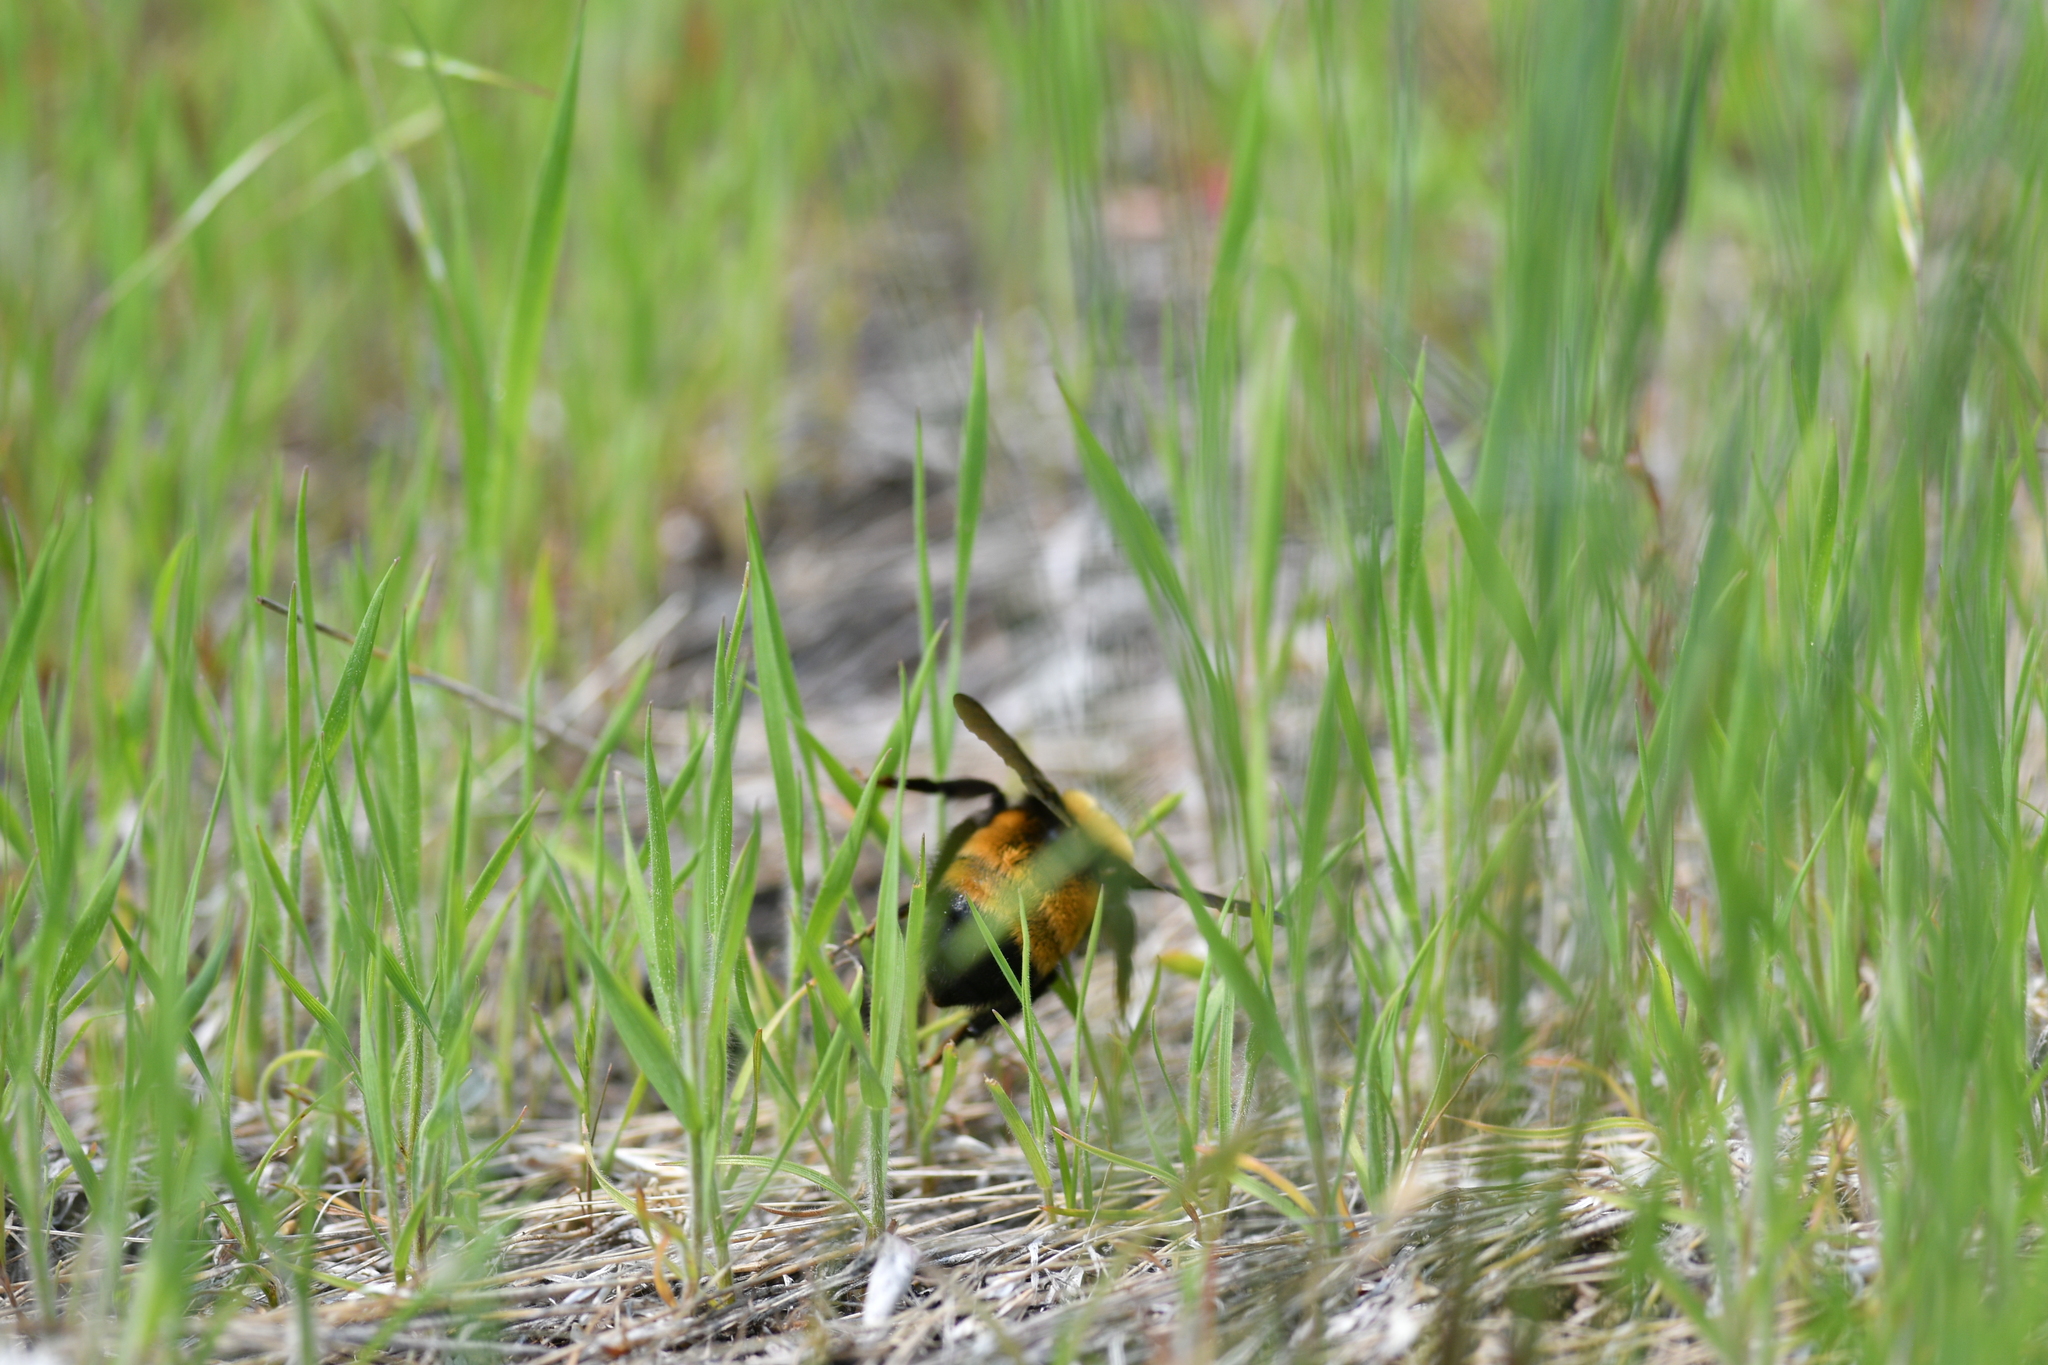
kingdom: Animalia
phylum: Arthropoda
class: Insecta
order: Hymenoptera
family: Apidae
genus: Bombus
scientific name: Bombus nevadensis
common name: Nevada bumble bee
